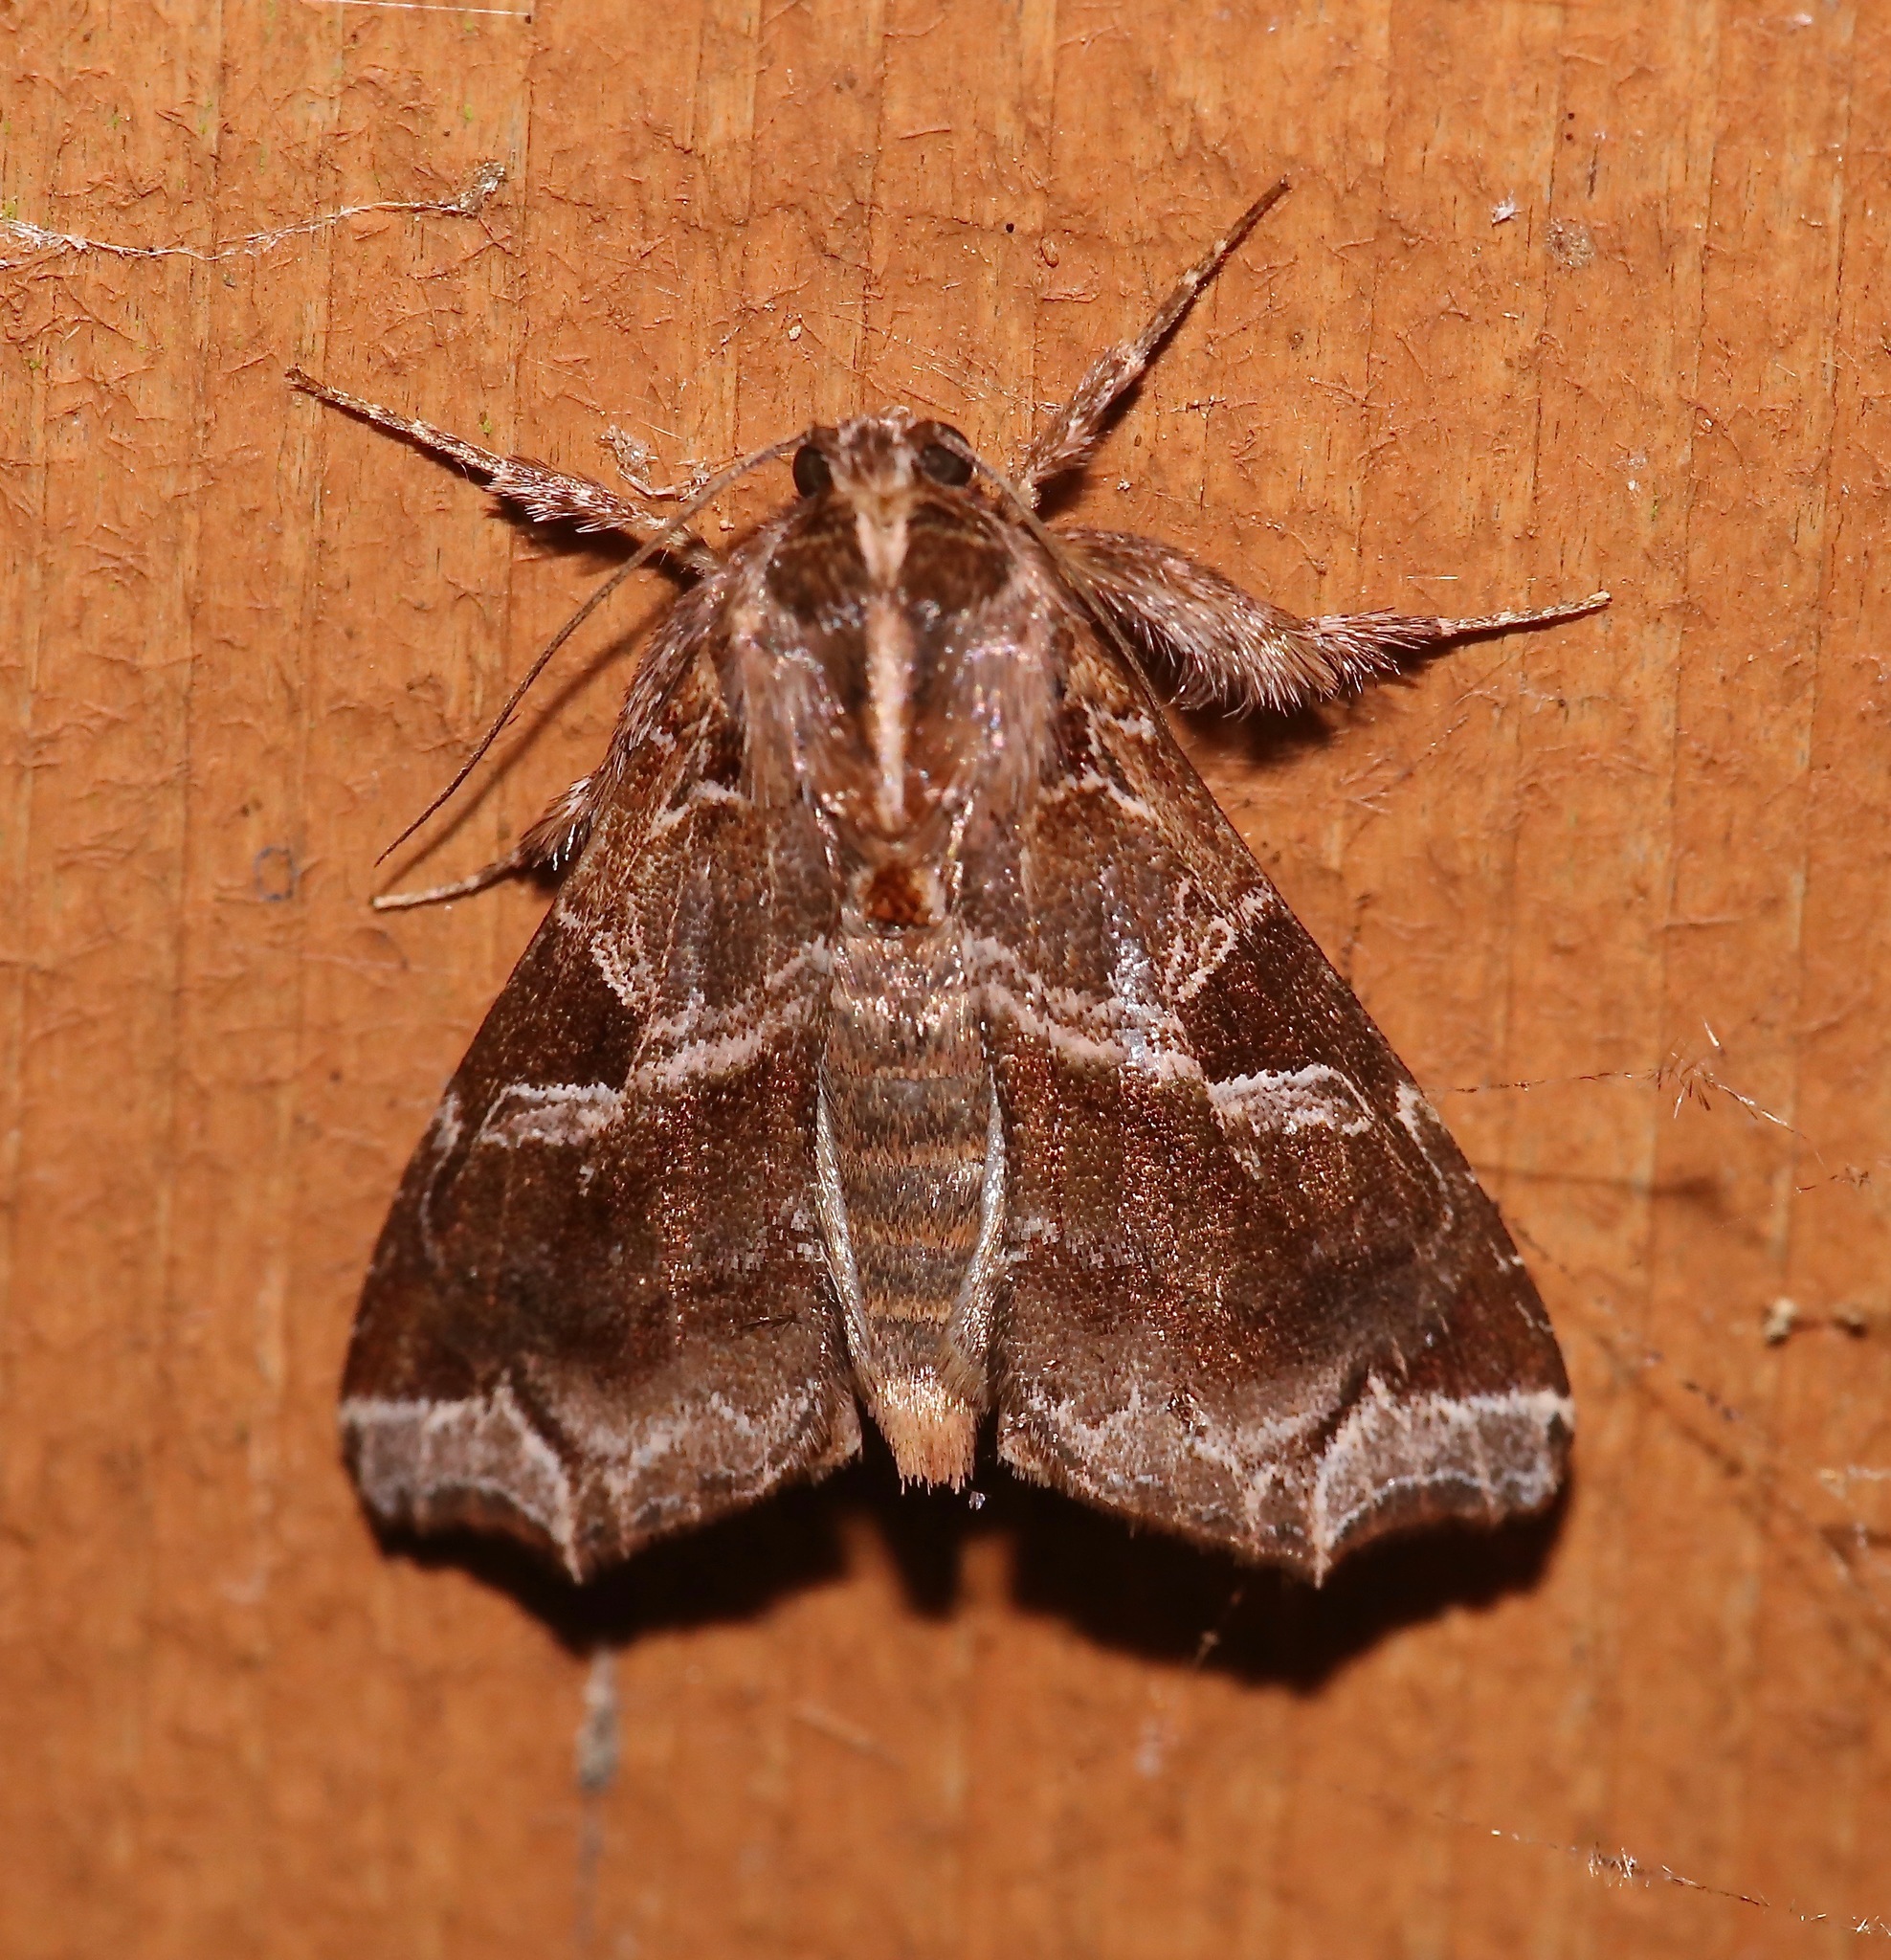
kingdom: Animalia
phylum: Arthropoda
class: Insecta
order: Lepidoptera
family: Noctuidae
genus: Callopistria
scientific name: Callopistria floridensis
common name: Florida fern moth
